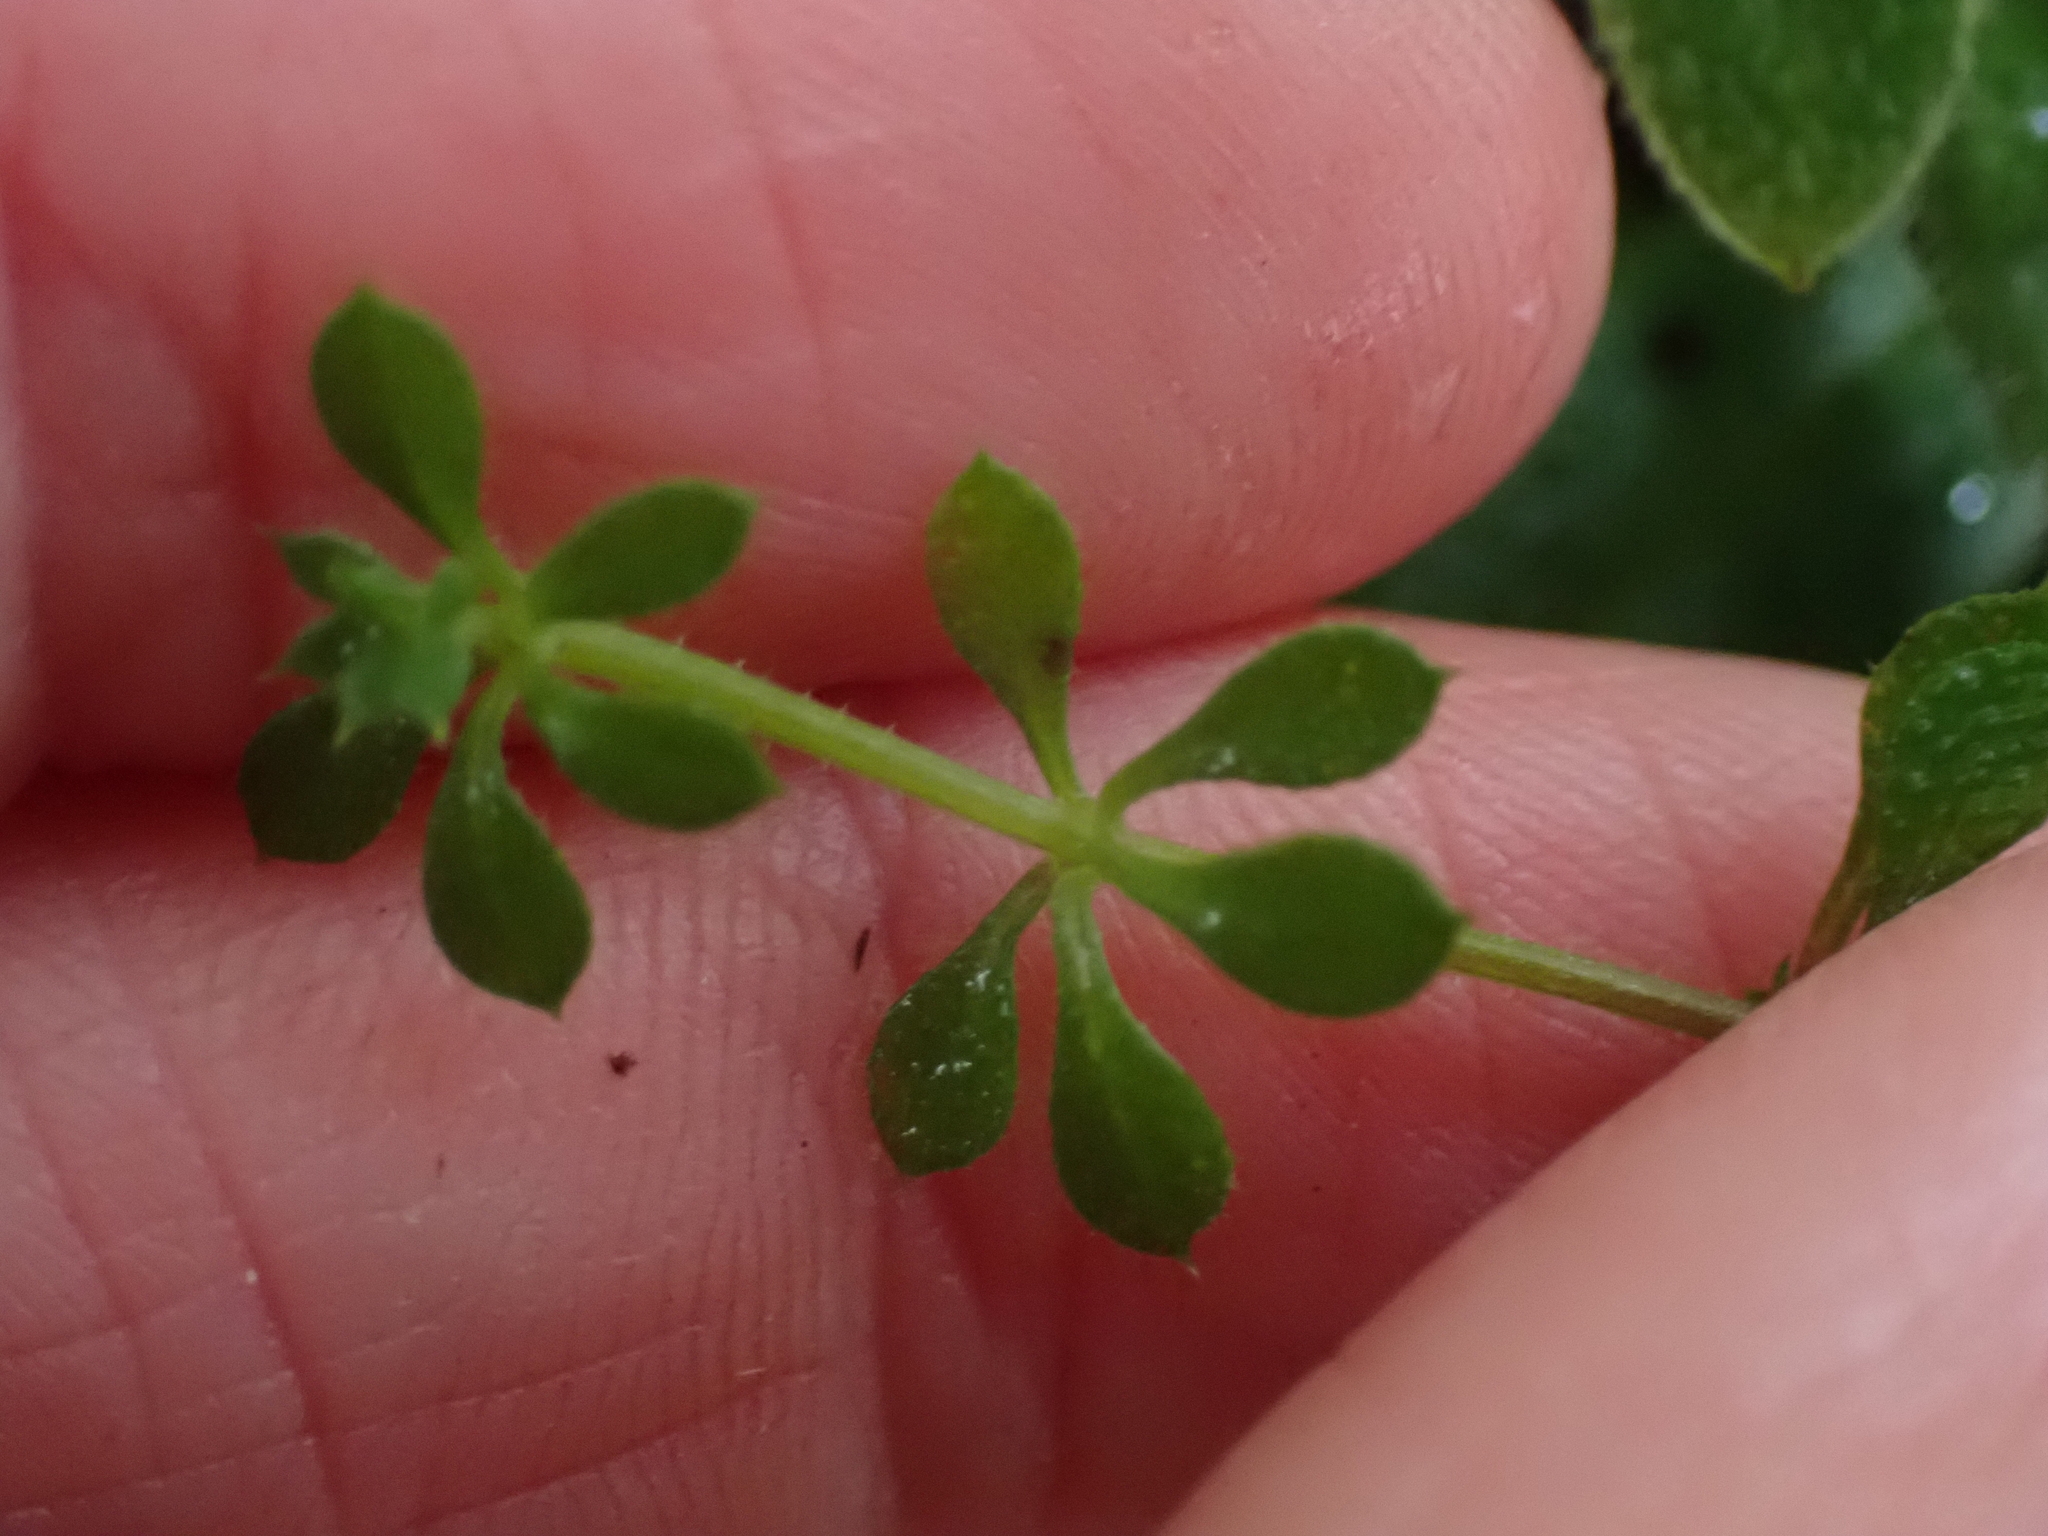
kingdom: Plantae
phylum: Tracheophyta
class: Magnoliopsida
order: Gentianales
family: Rubiaceae
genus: Galium
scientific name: Galium aparine
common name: Cleavers
